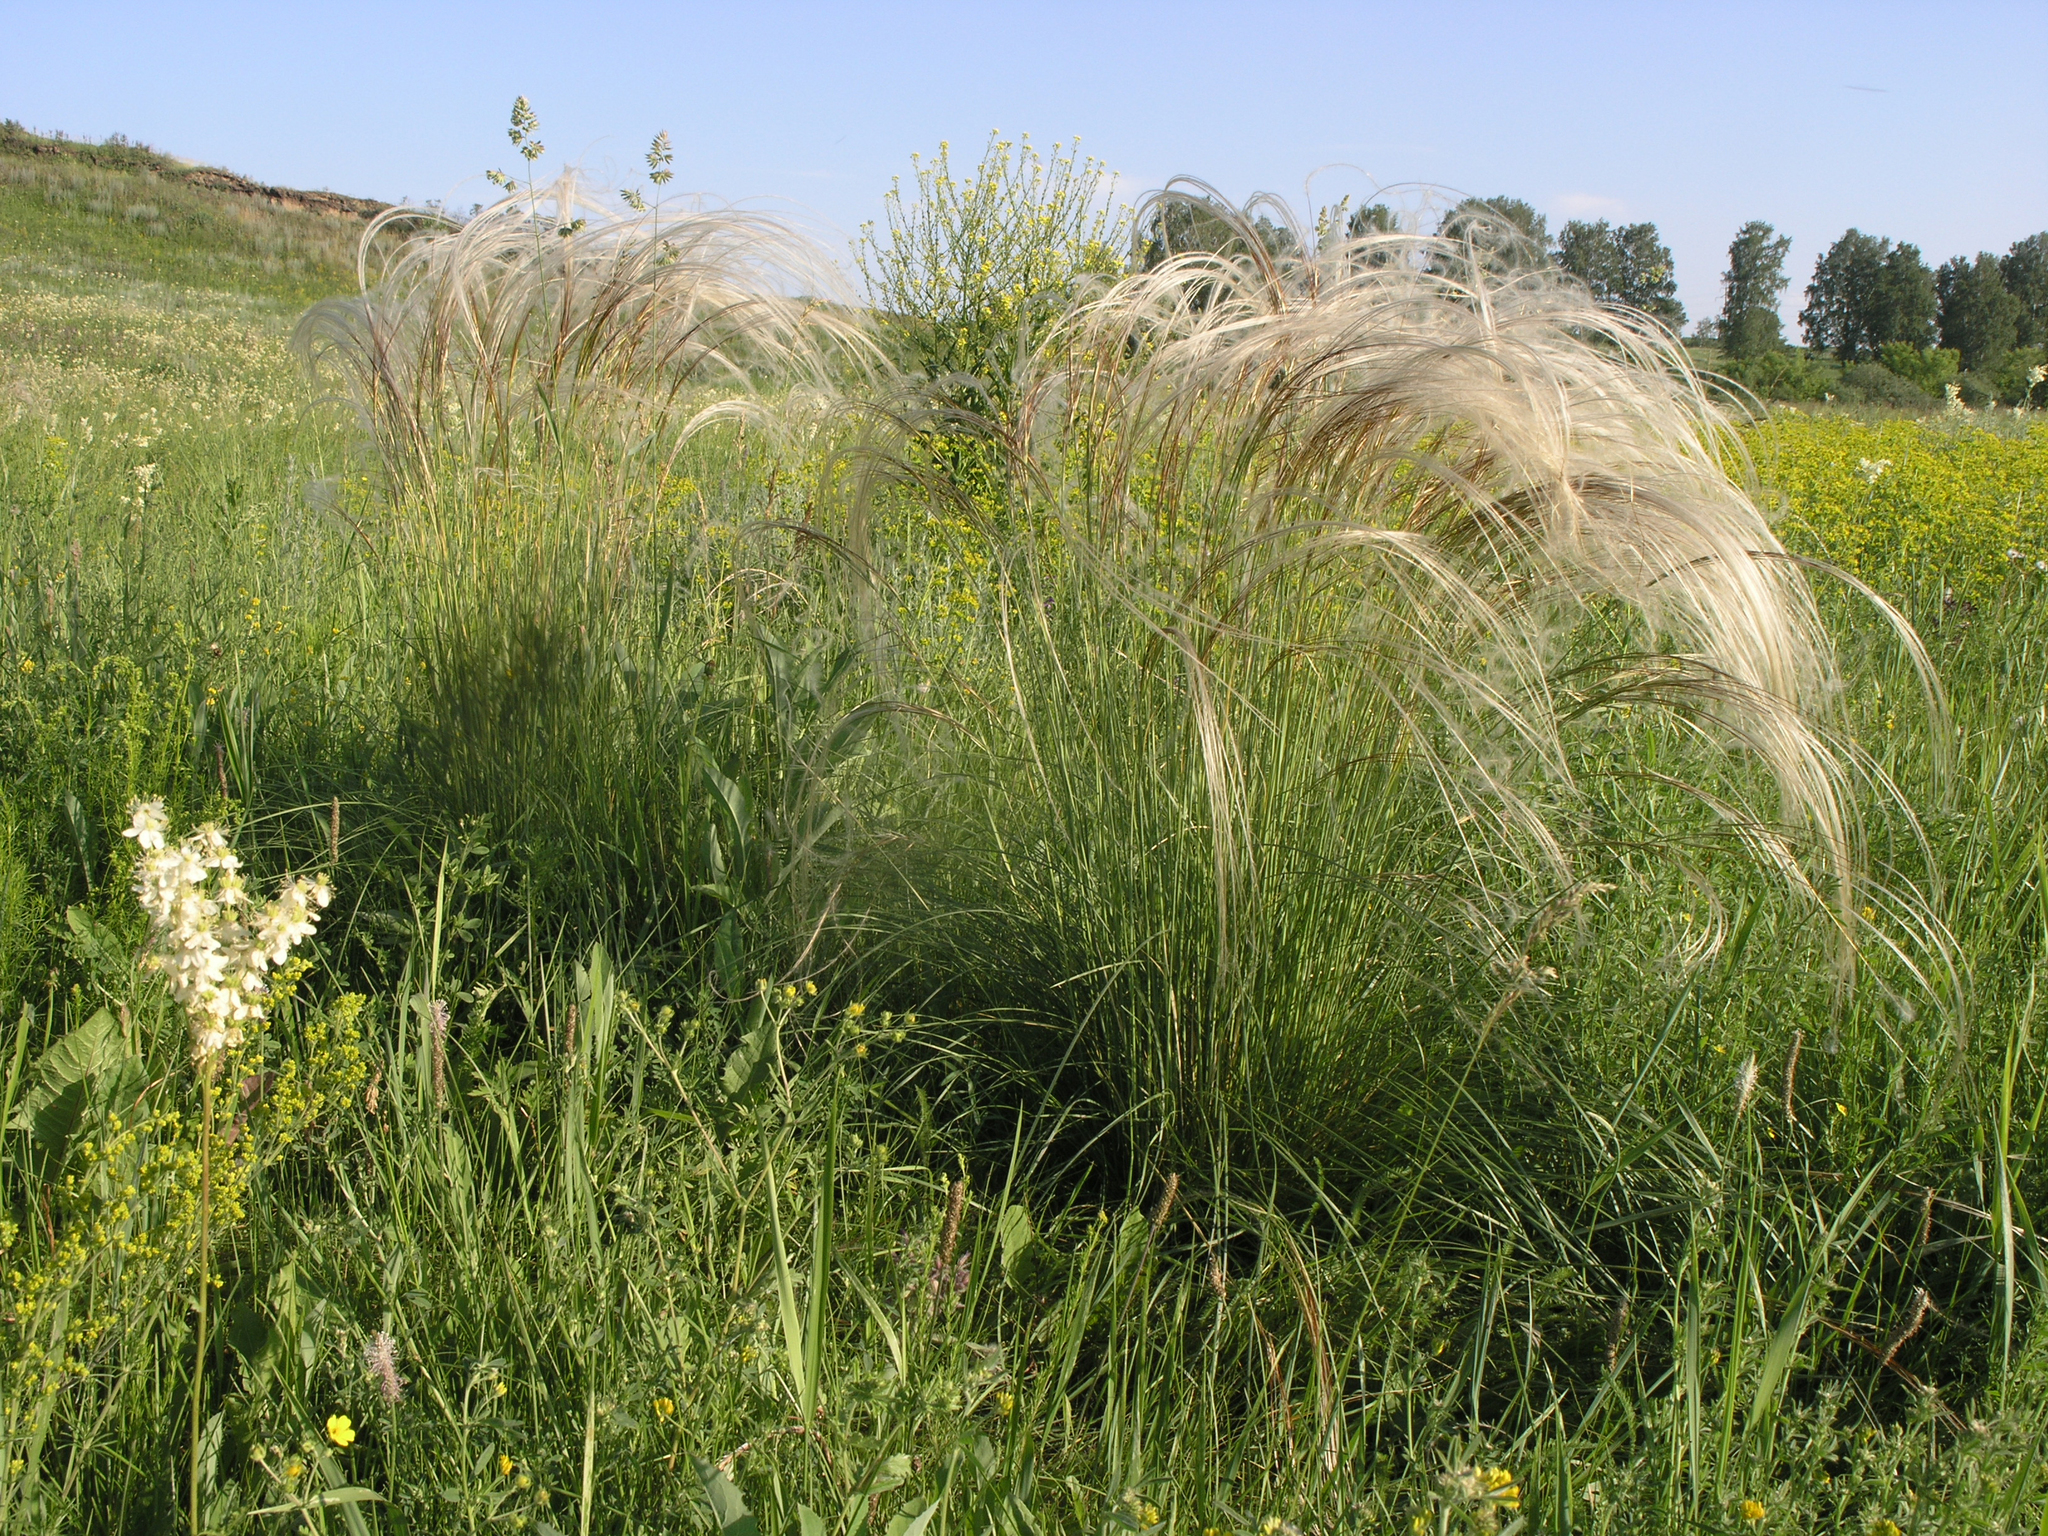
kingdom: Plantae
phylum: Tracheophyta
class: Liliopsida
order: Poales
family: Poaceae
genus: Stipa
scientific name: Stipa pennata
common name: European feather grass
